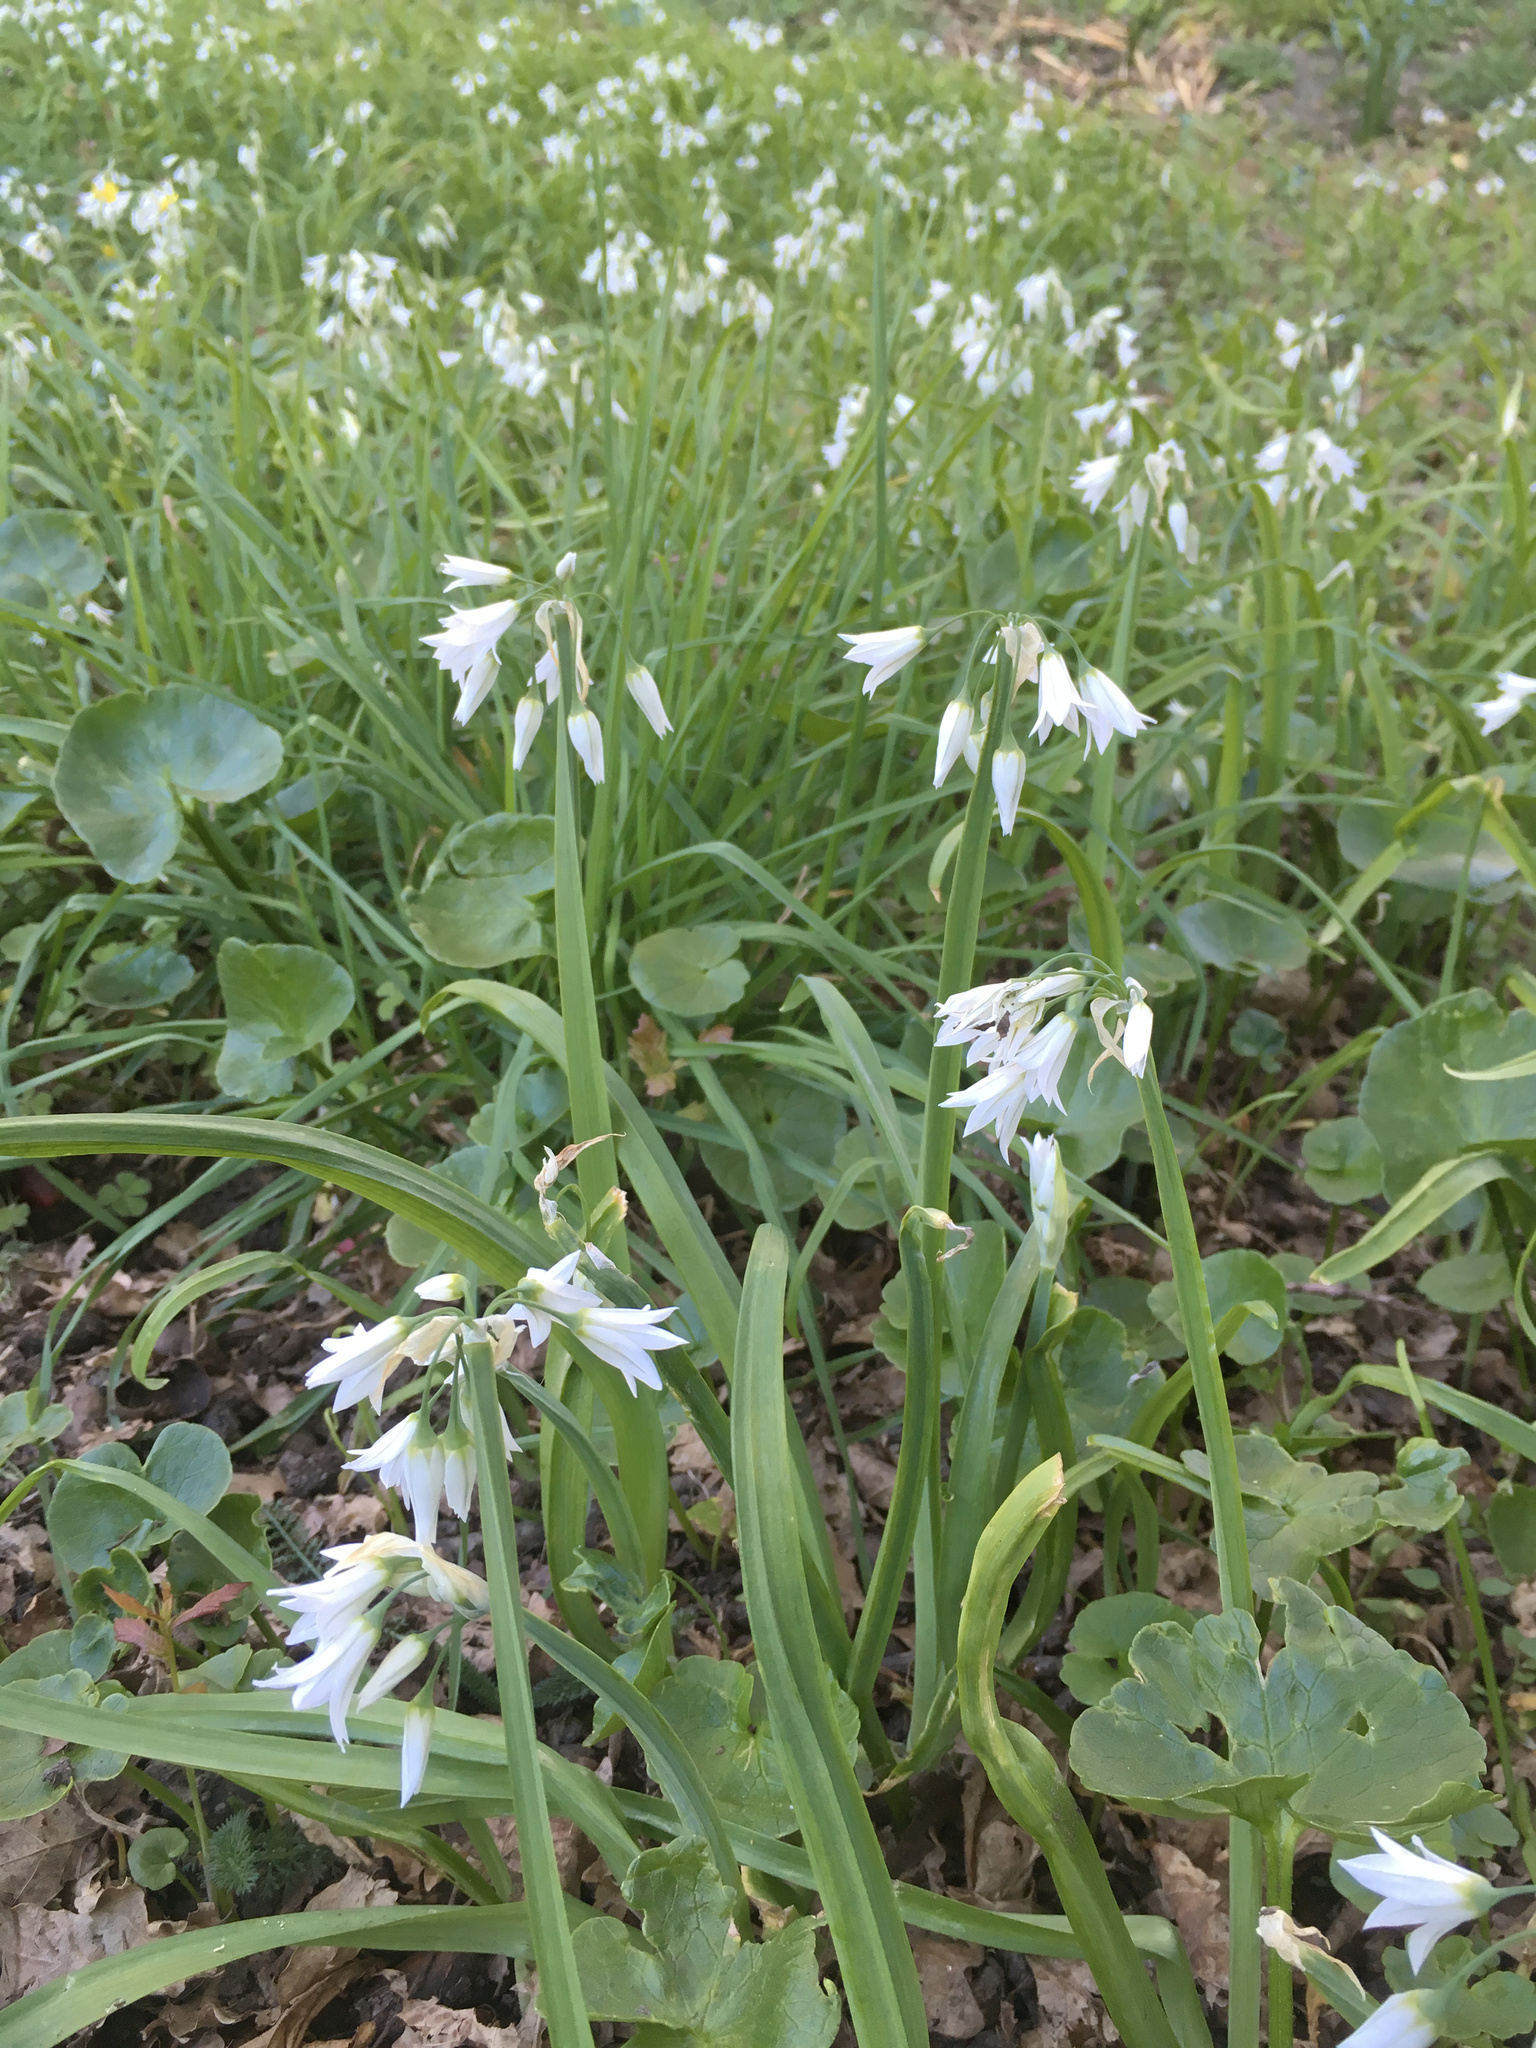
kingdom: Plantae
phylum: Tracheophyta
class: Liliopsida
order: Asparagales
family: Amaryllidaceae
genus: Allium
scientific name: Allium triquetrum
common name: Three-cornered garlic
